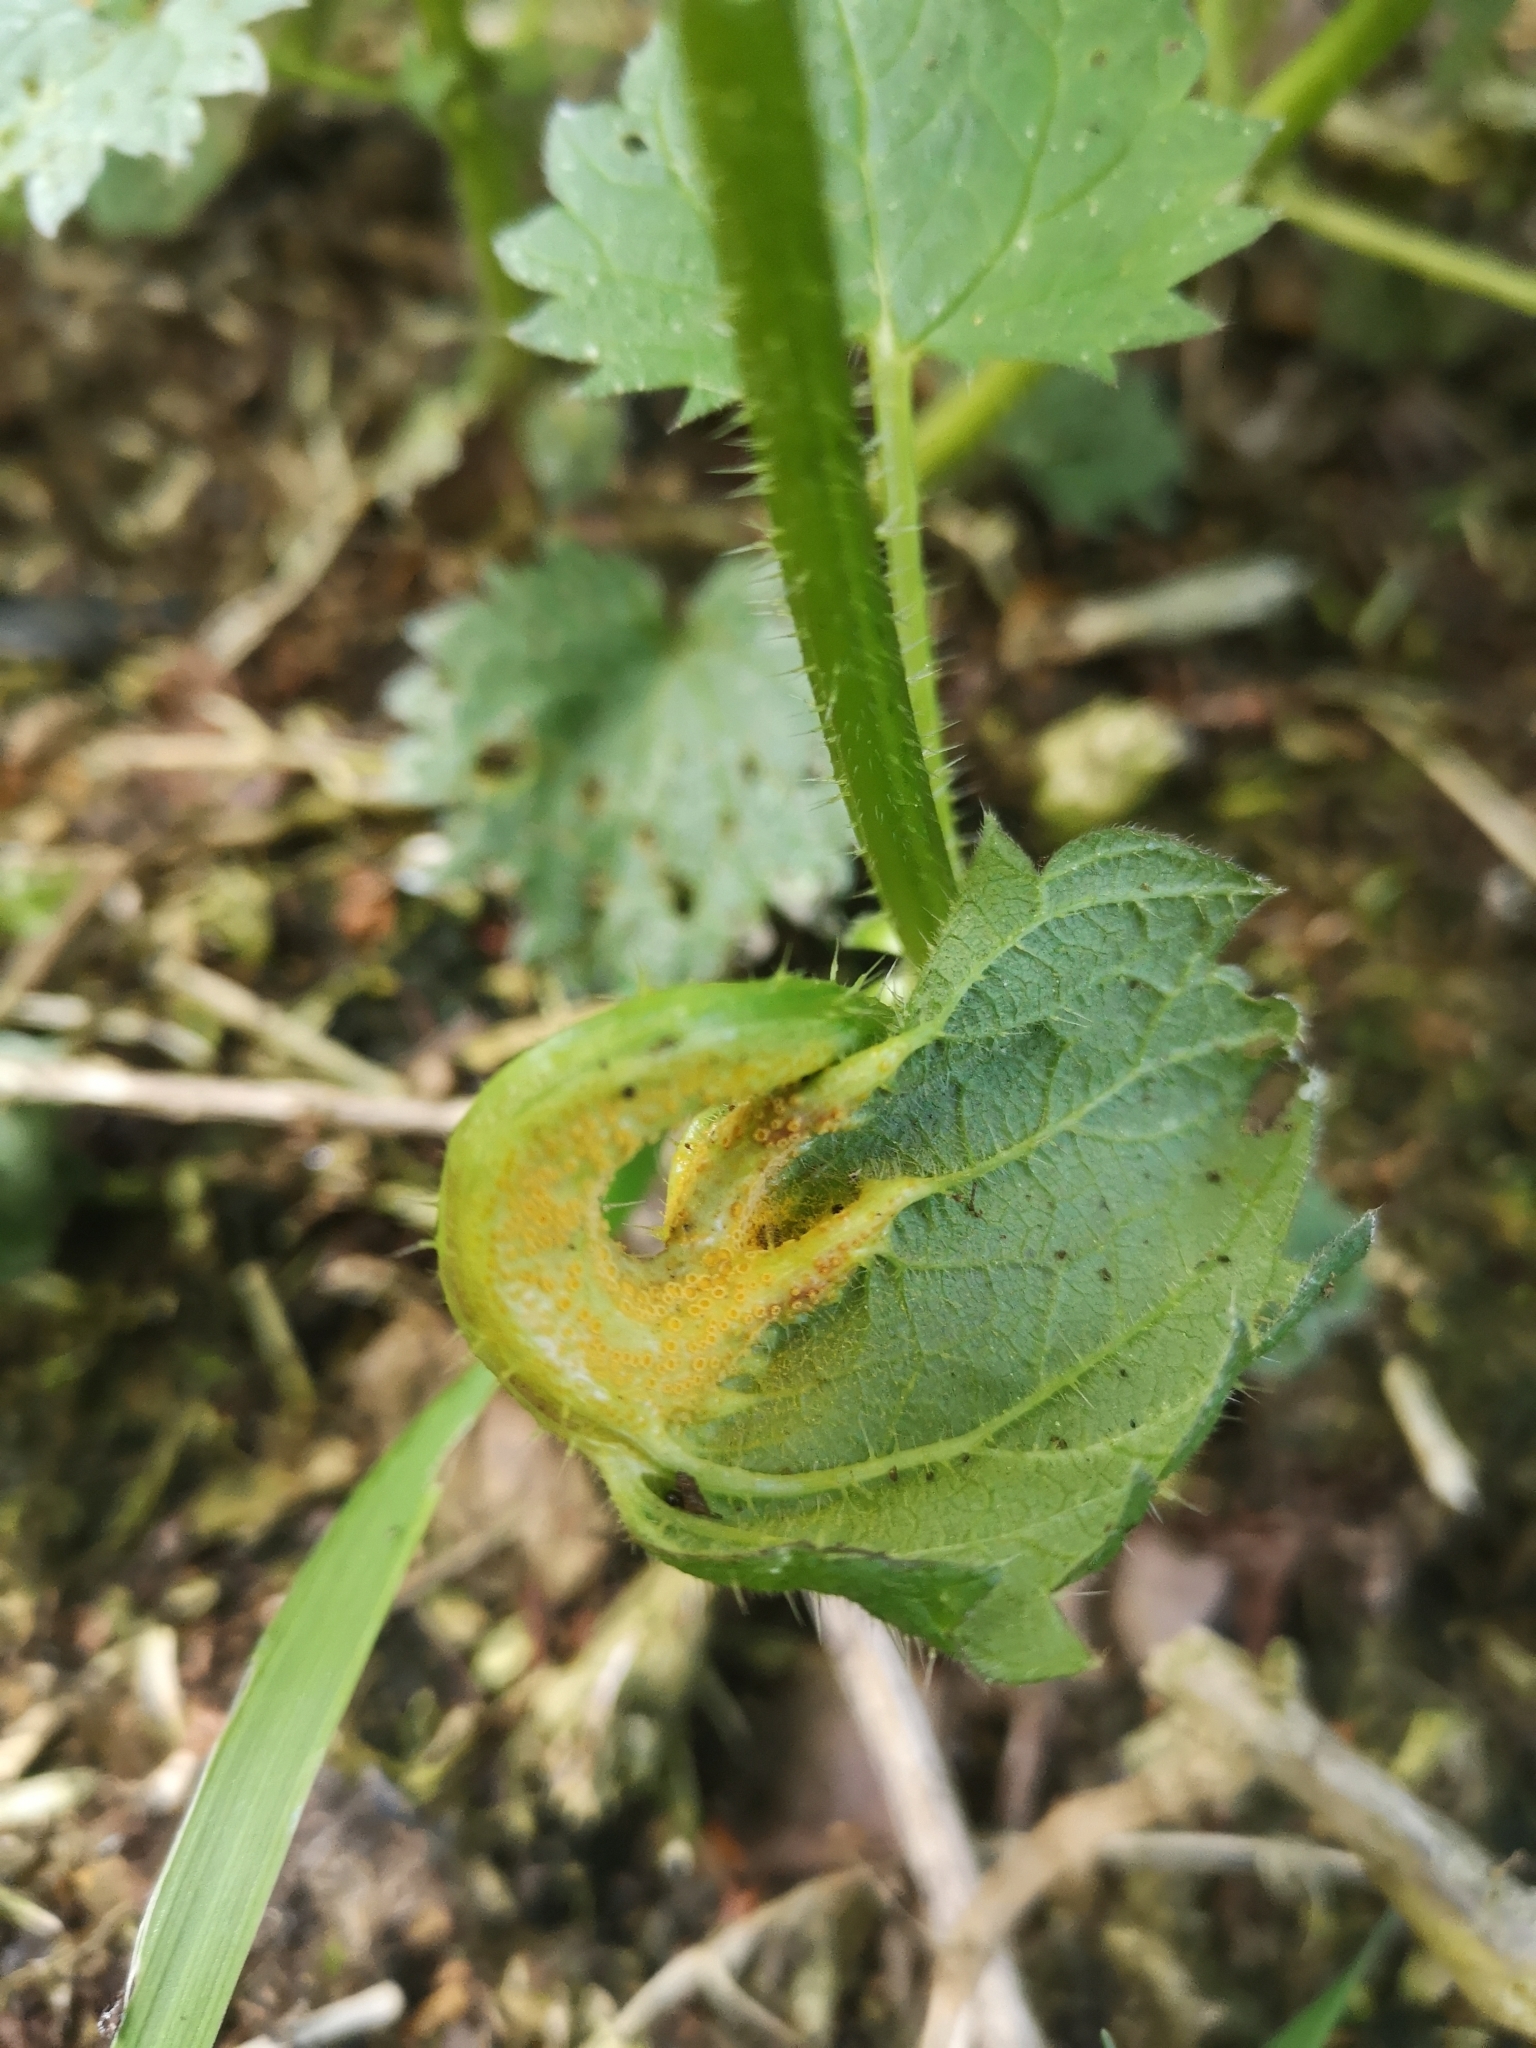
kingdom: Fungi
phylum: Basidiomycota
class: Pucciniomycetes
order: Pucciniales
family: Pucciniaceae
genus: Puccinia
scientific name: Puccinia urticata
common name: Nettle clustercup rust fungus
